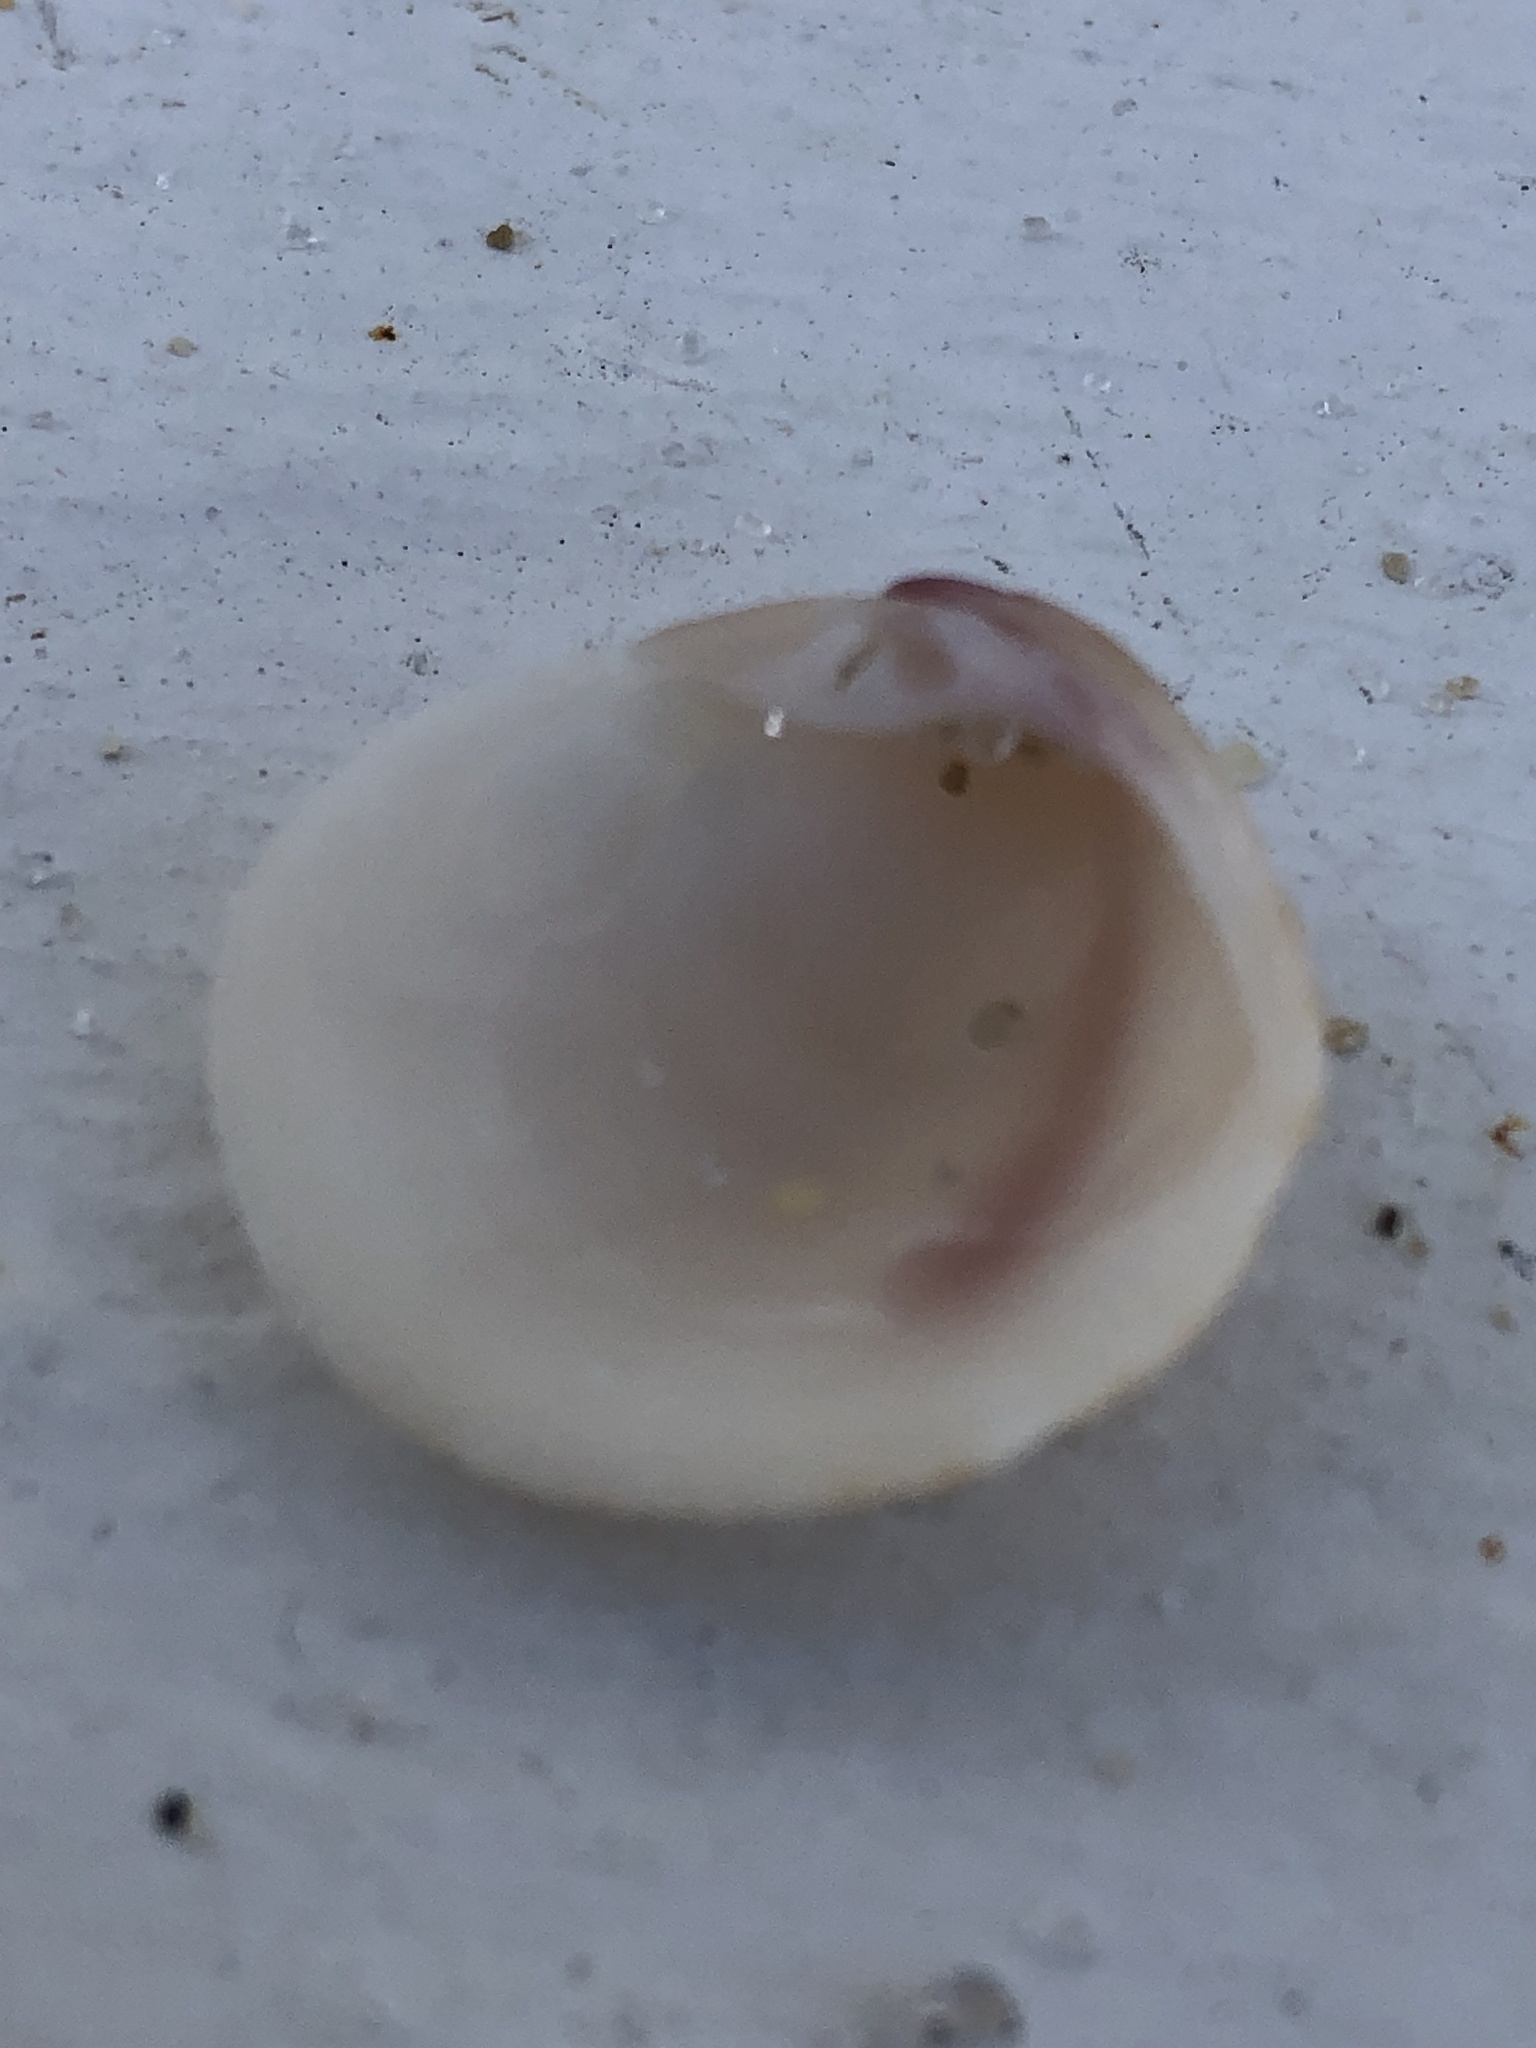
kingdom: Animalia
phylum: Mollusca
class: Bivalvia
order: Venerida
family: Veneridae
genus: Chionopsis
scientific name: Chionopsis intapurpurea
